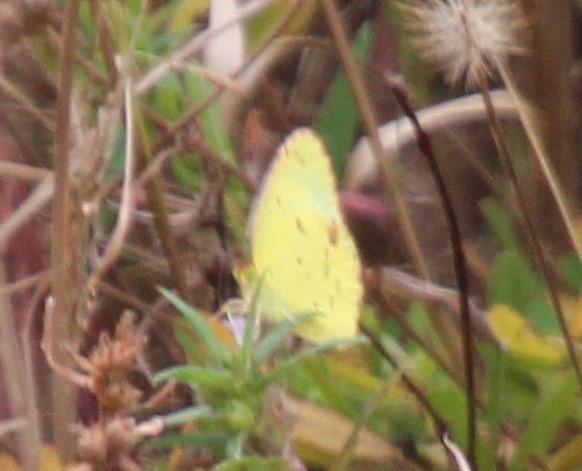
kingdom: Animalia
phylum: Arthropoda
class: Insecta
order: Lepidoptera
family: Pieridae
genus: Pyrisitia
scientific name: Pyrisitia lisa
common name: Little yellow
